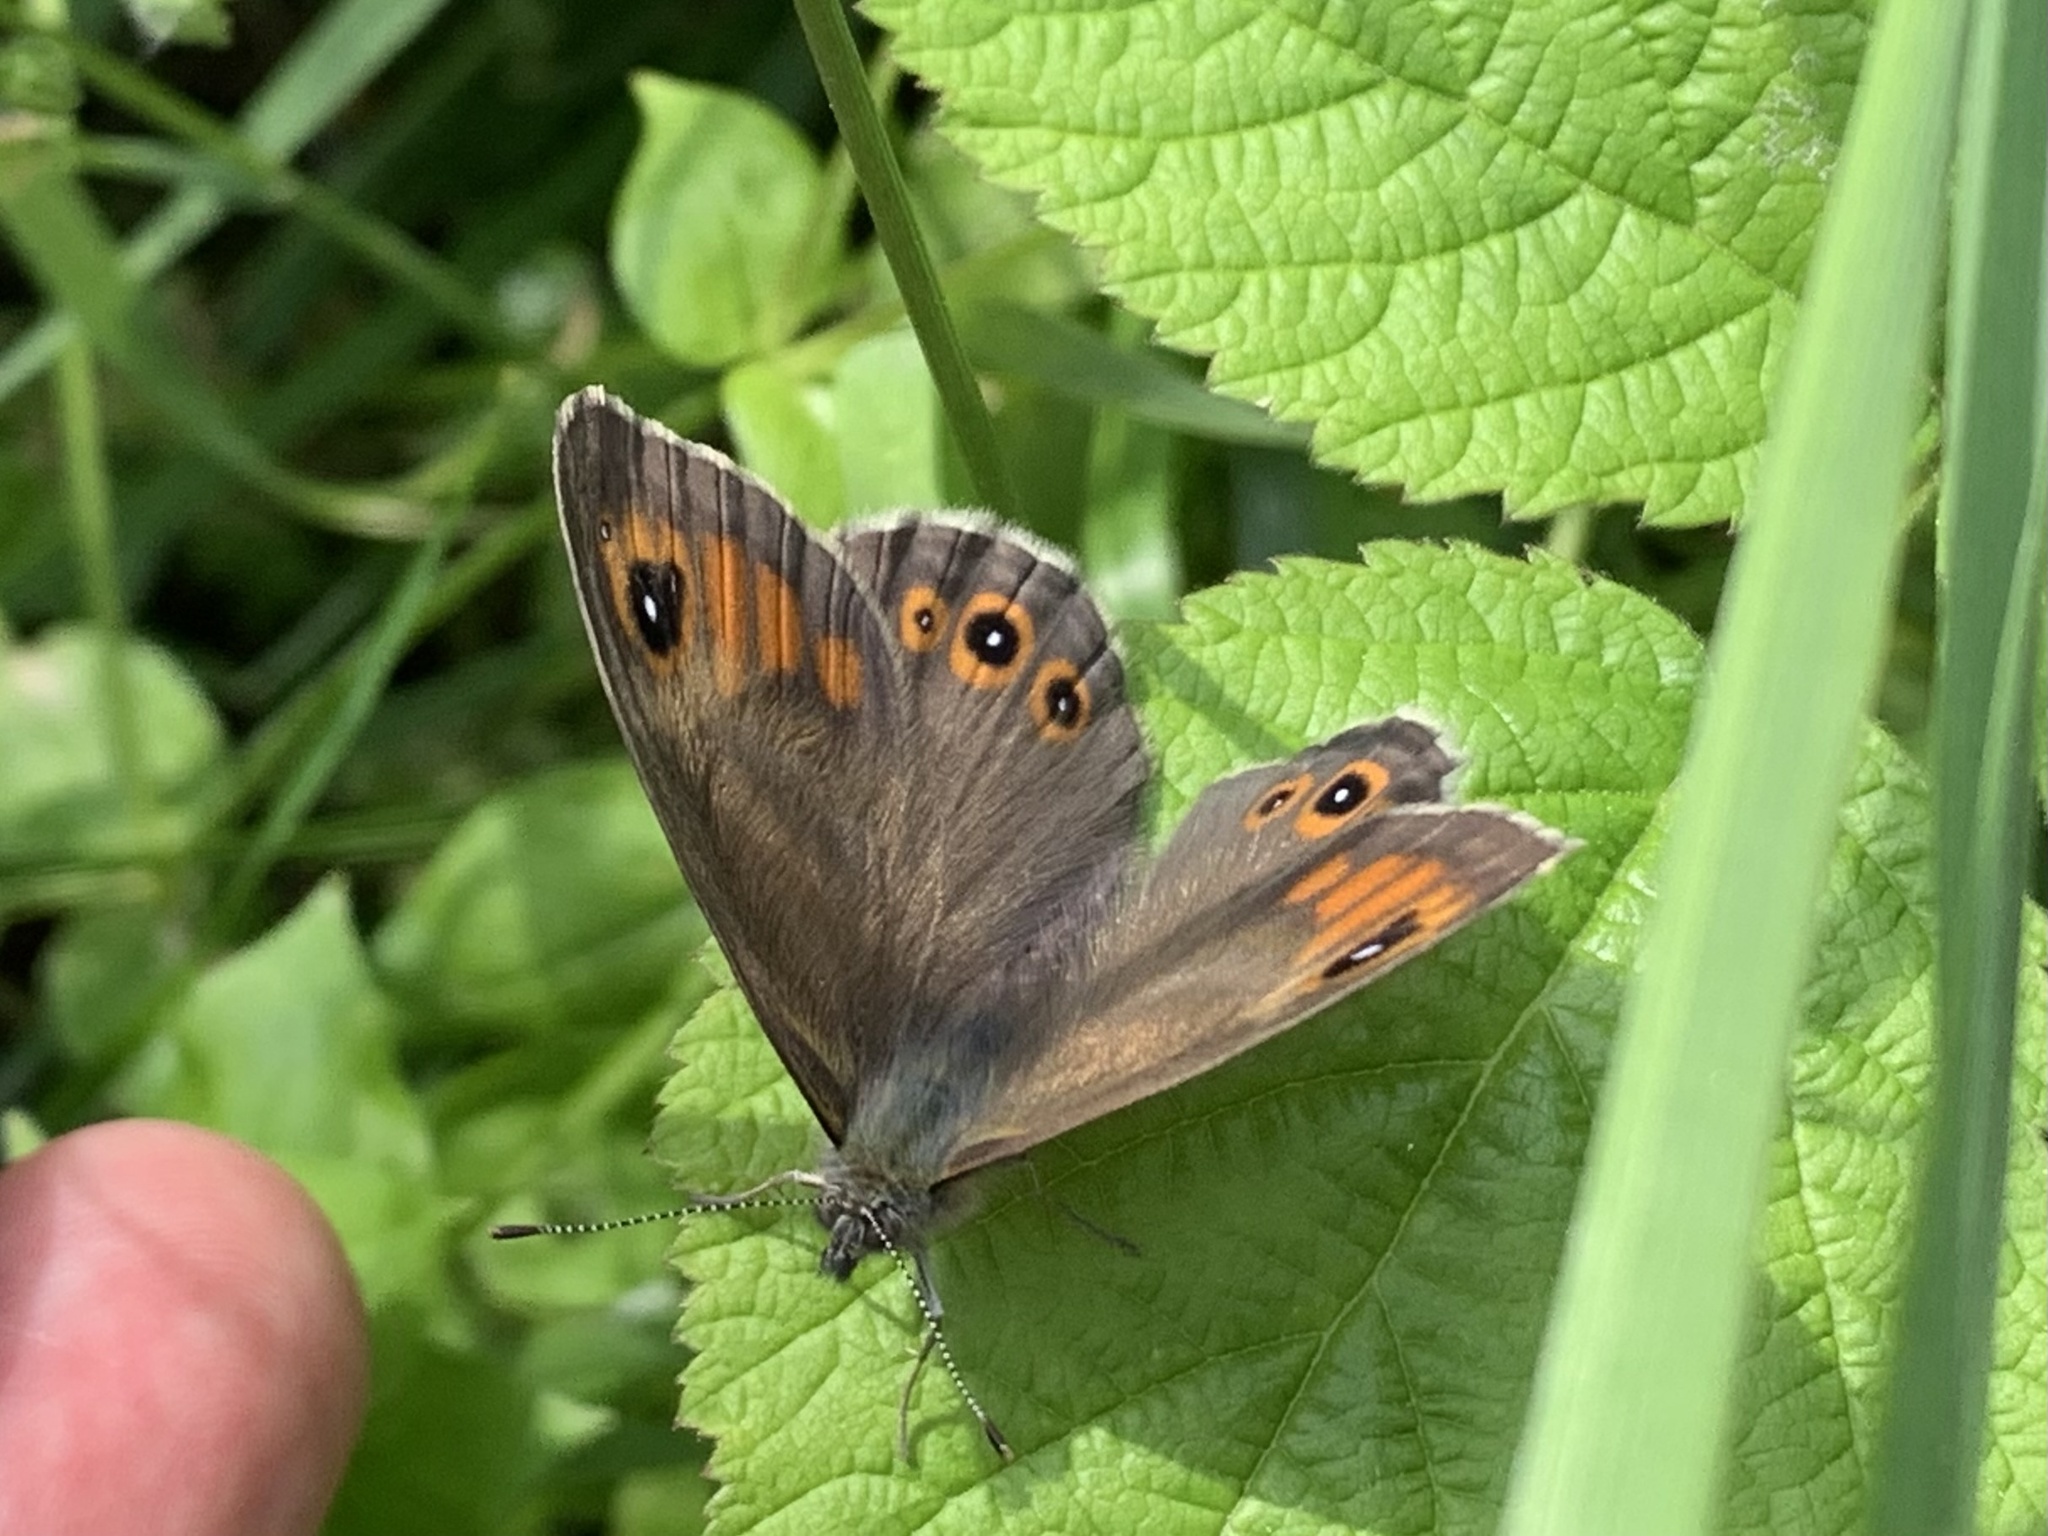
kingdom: Animalia
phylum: Arthropoda
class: Insecta
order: Lepidoptera
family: Nymphalidae
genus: Pararge
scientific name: Pararge Lasiommata maera
